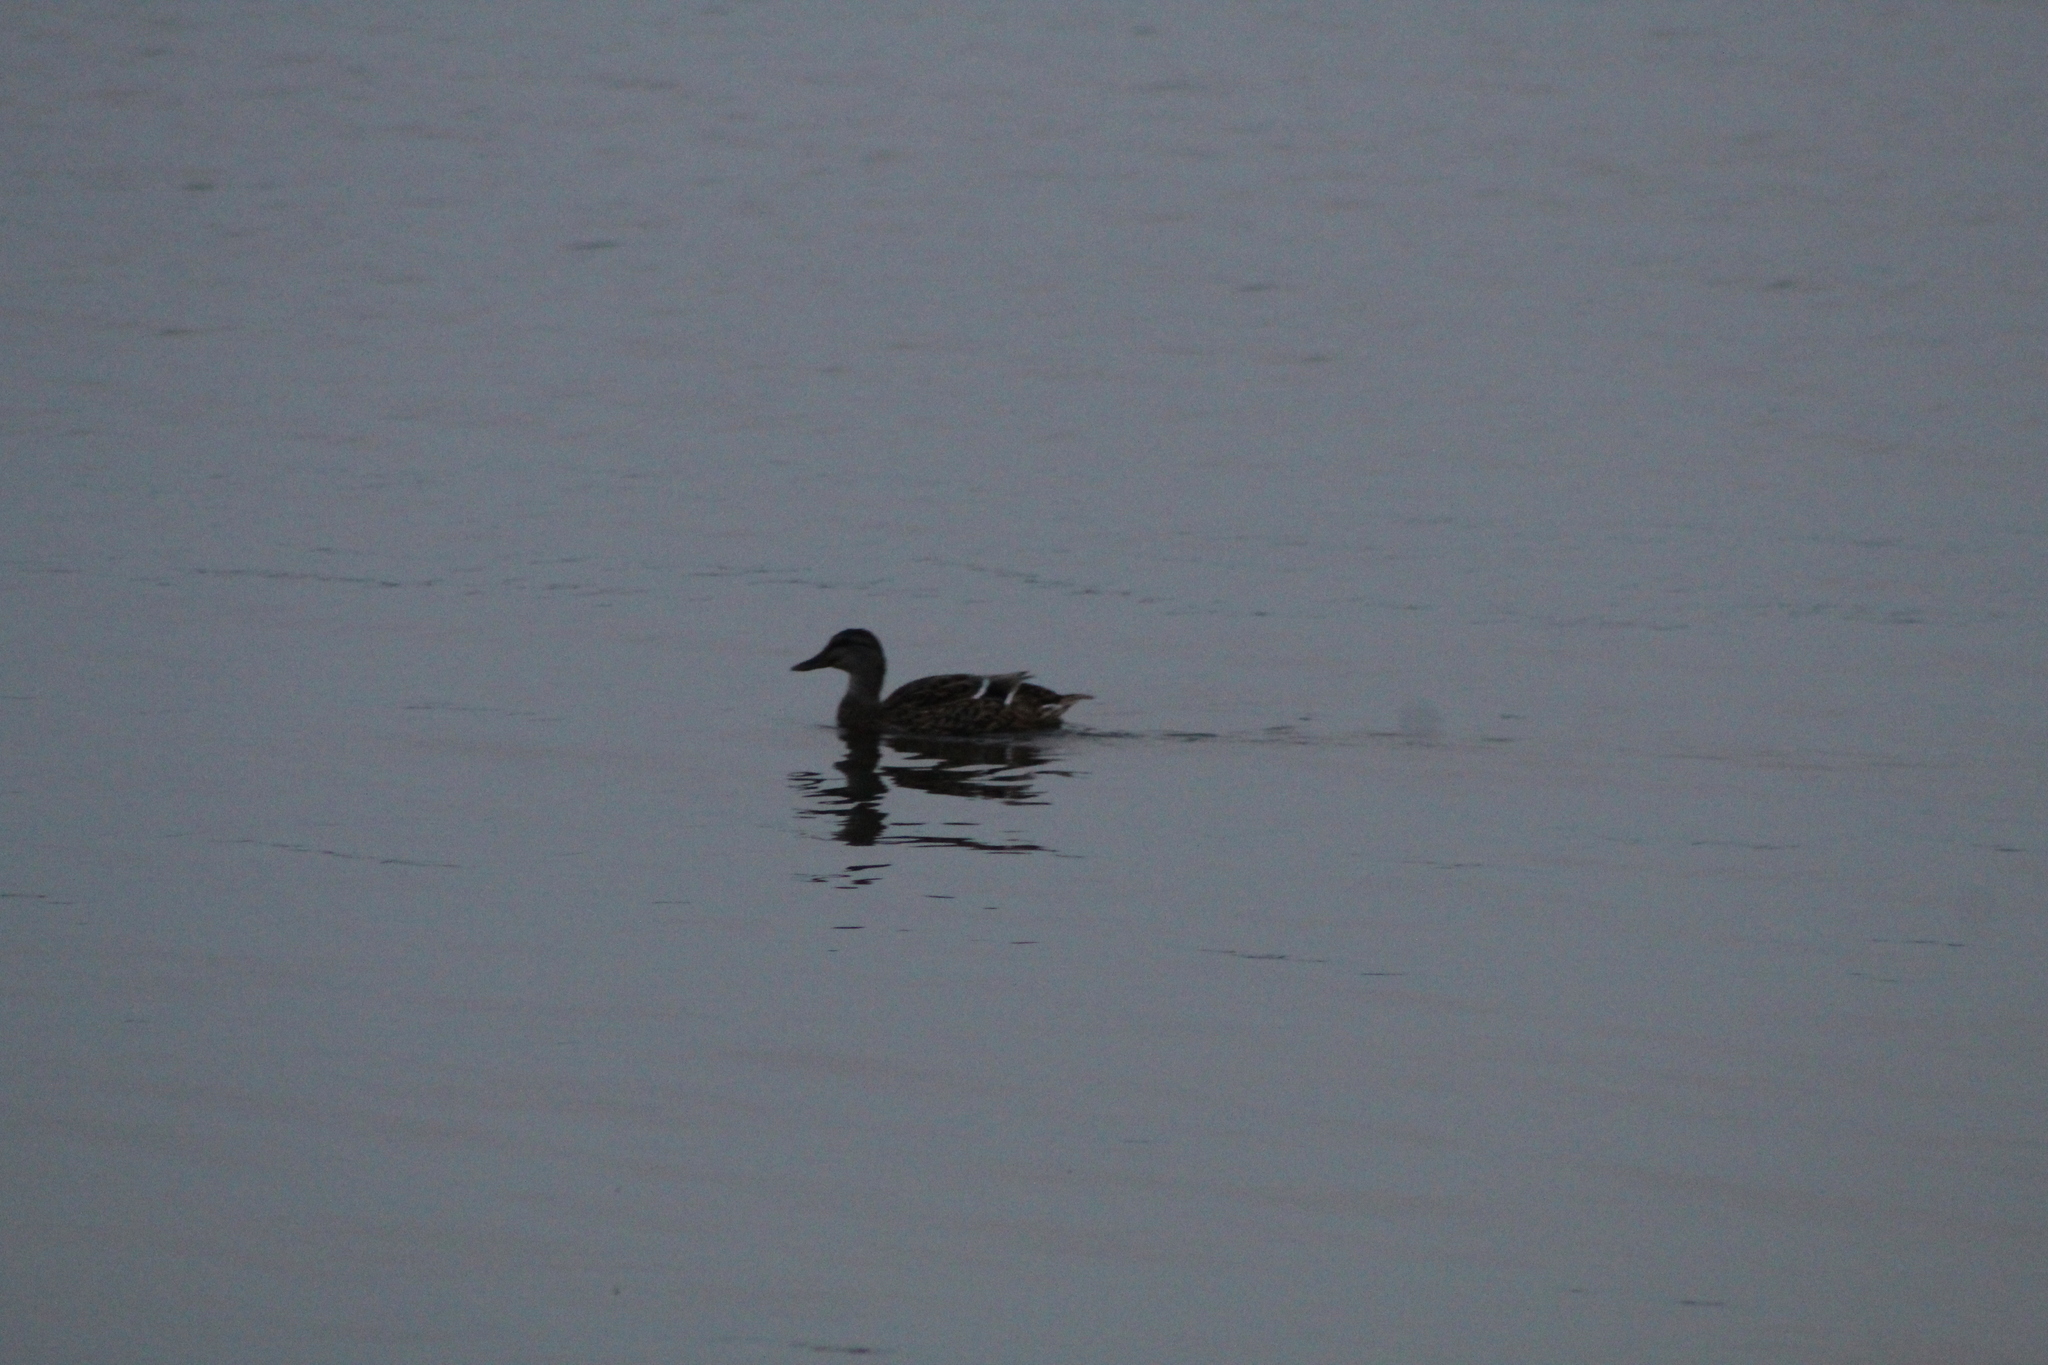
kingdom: Animalia
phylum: Chordata
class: Aves
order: Anseriformes
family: Anatidae
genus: Anas
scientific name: Anas platyrhynchos
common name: Mallard
